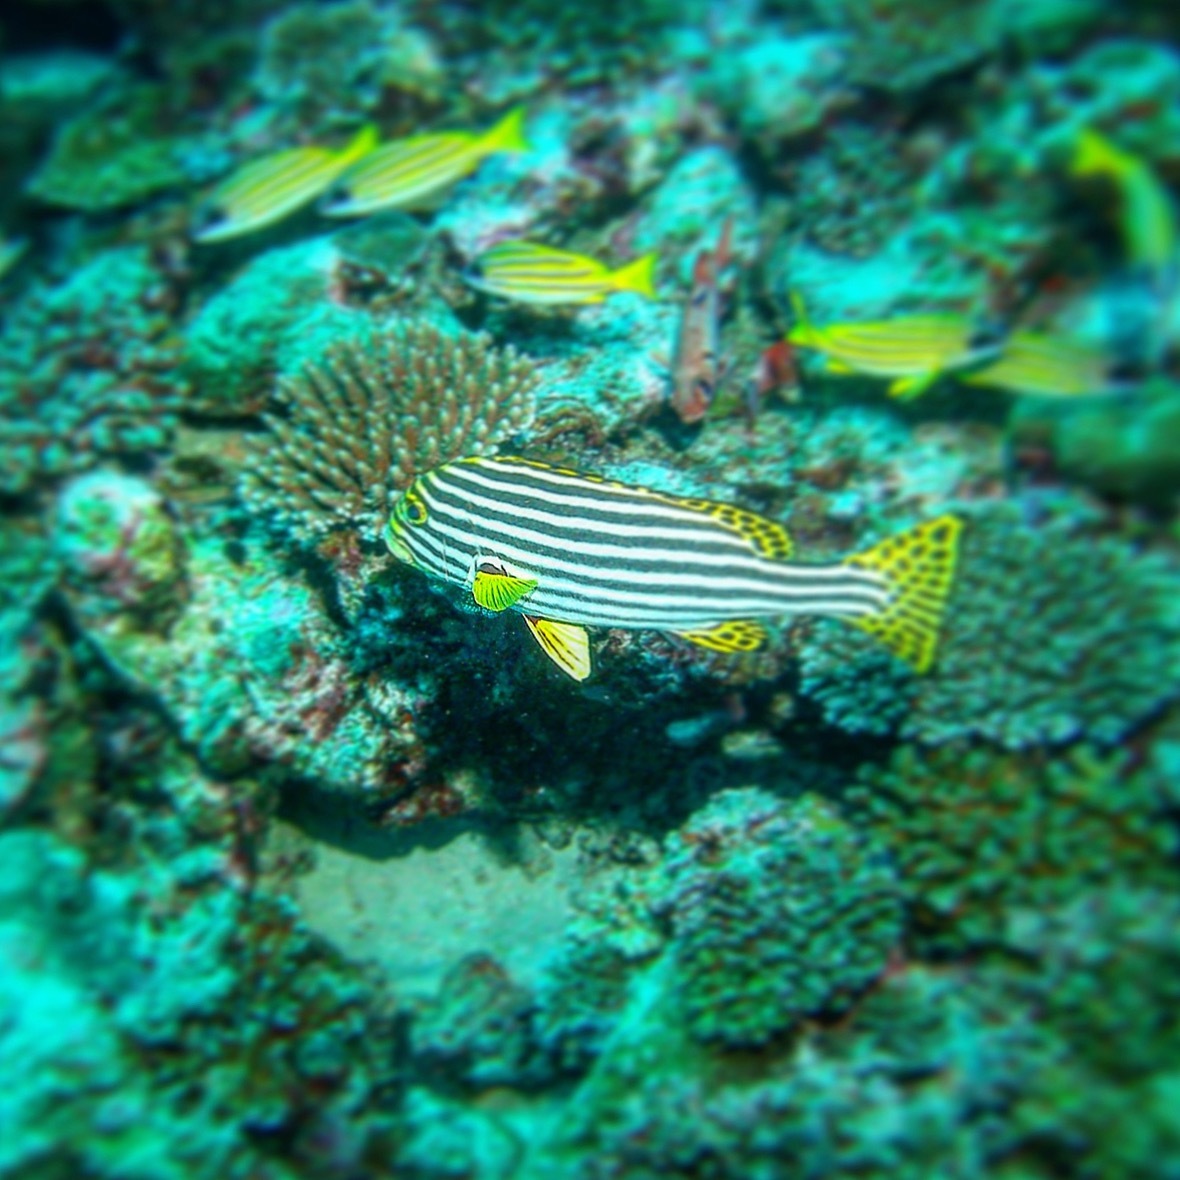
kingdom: Animalia
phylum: Chordata
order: Perciformes
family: Haemulidae
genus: Plectorhinchus
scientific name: Plectorhinchus vittatus
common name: Oriental sweetlips
